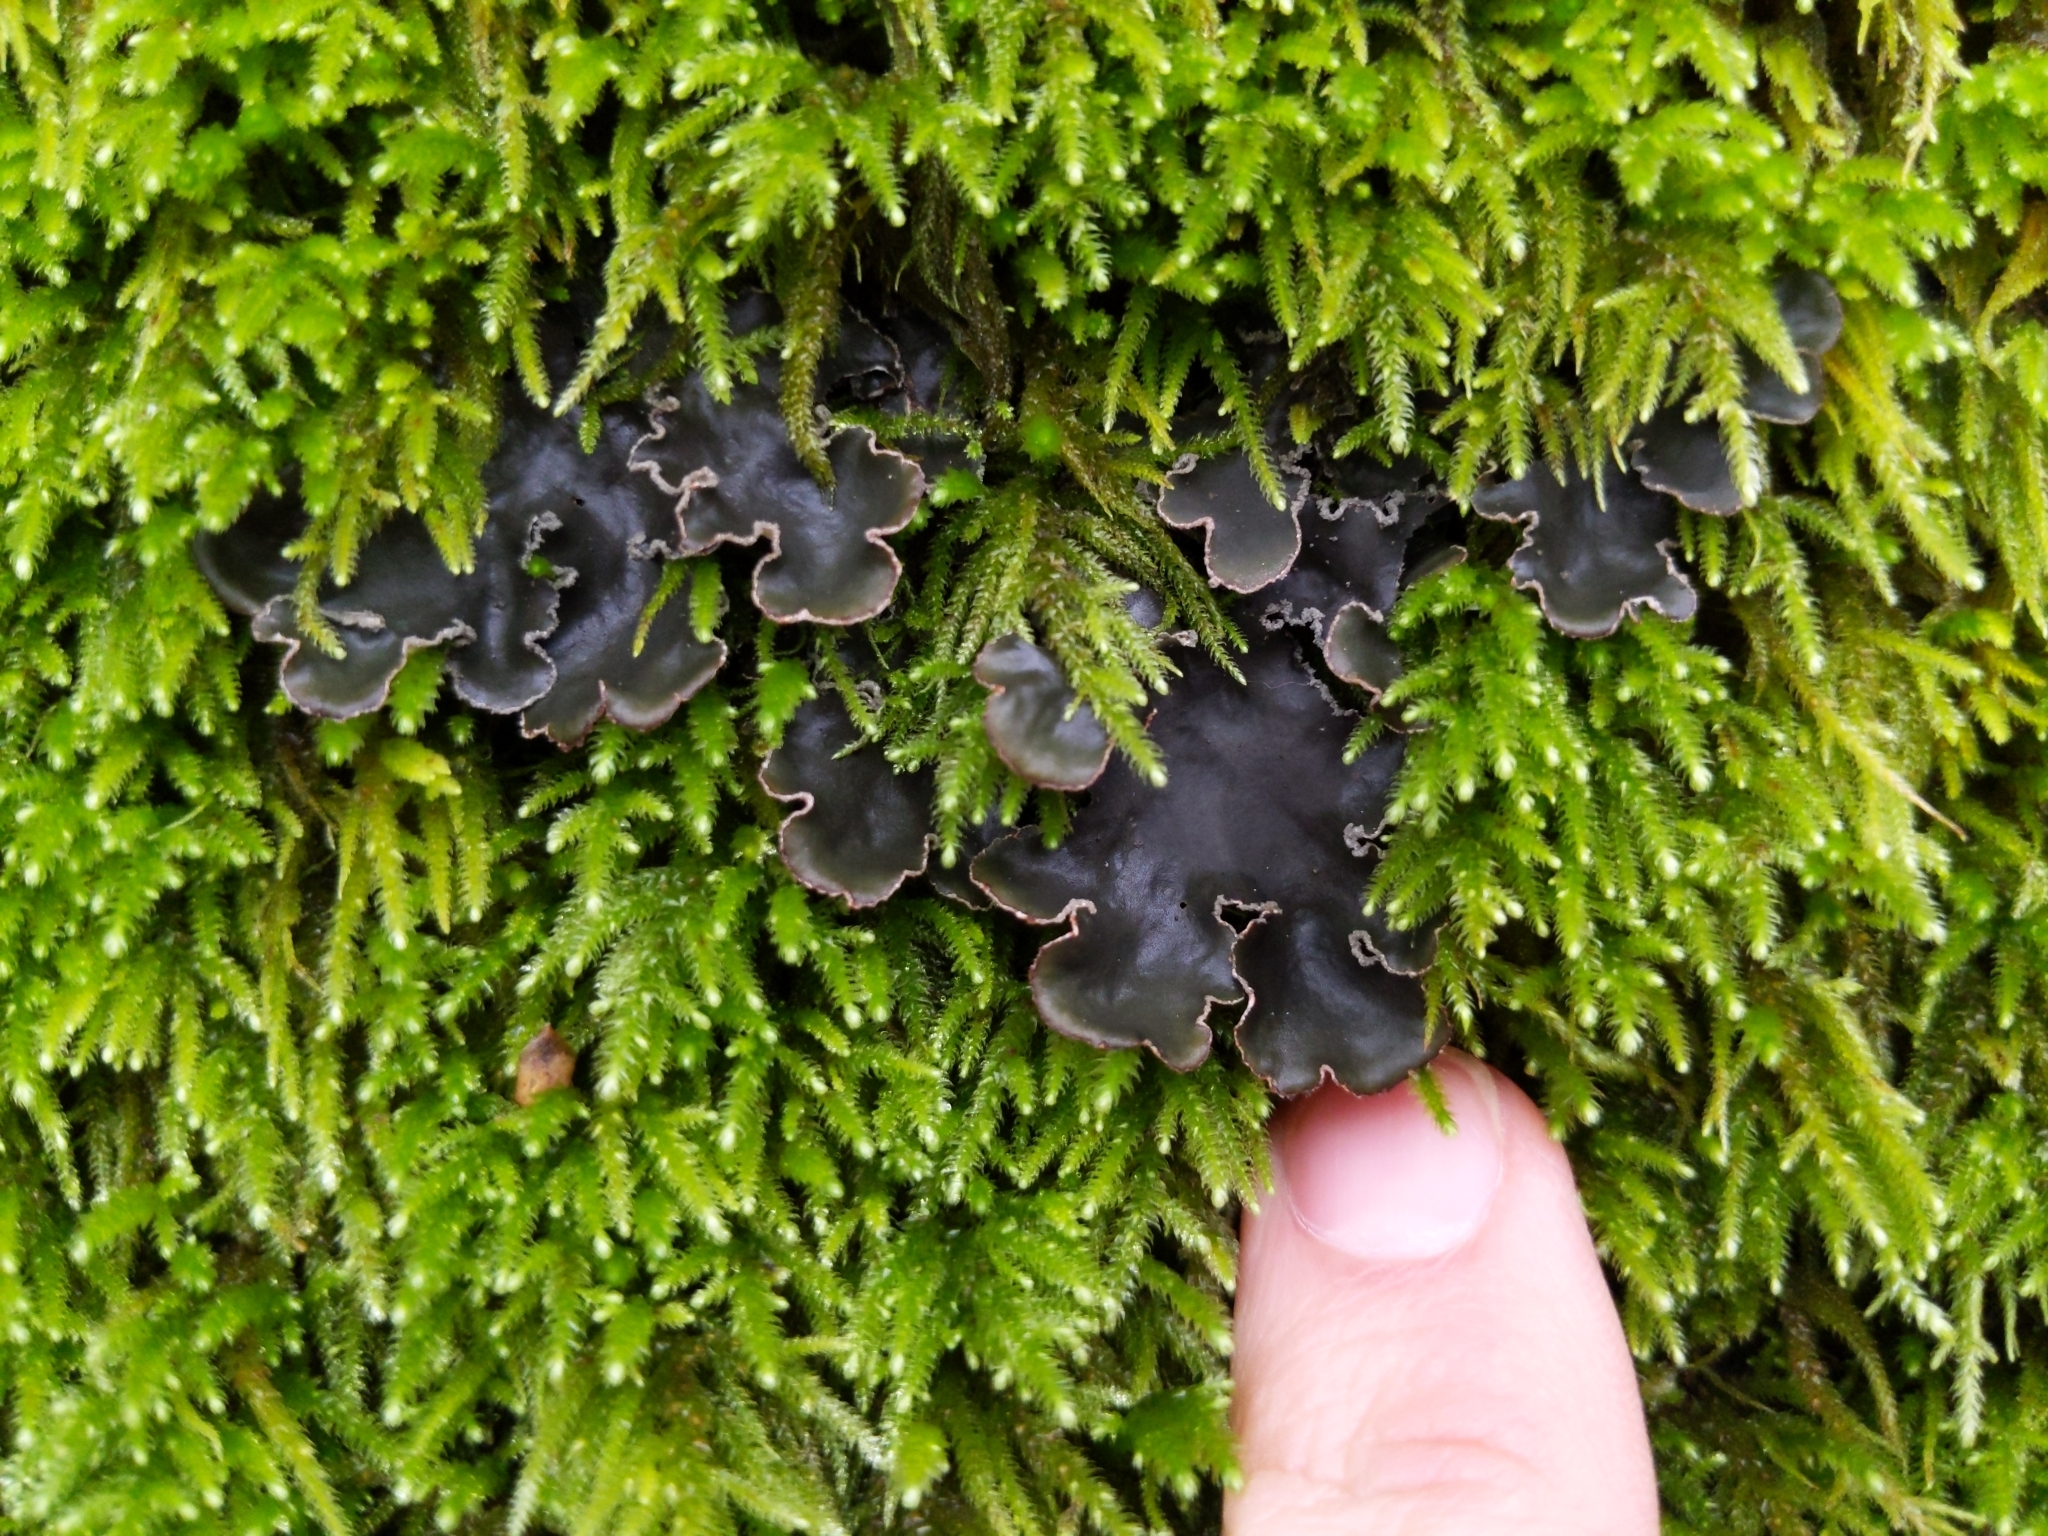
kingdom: Fungi
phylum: Ascomycota
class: Lecanoromycetes
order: Peltigerales
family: Peltigeraceae
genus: Peltigera
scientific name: Peltigera collina
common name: Gritty tree pelt lichen
